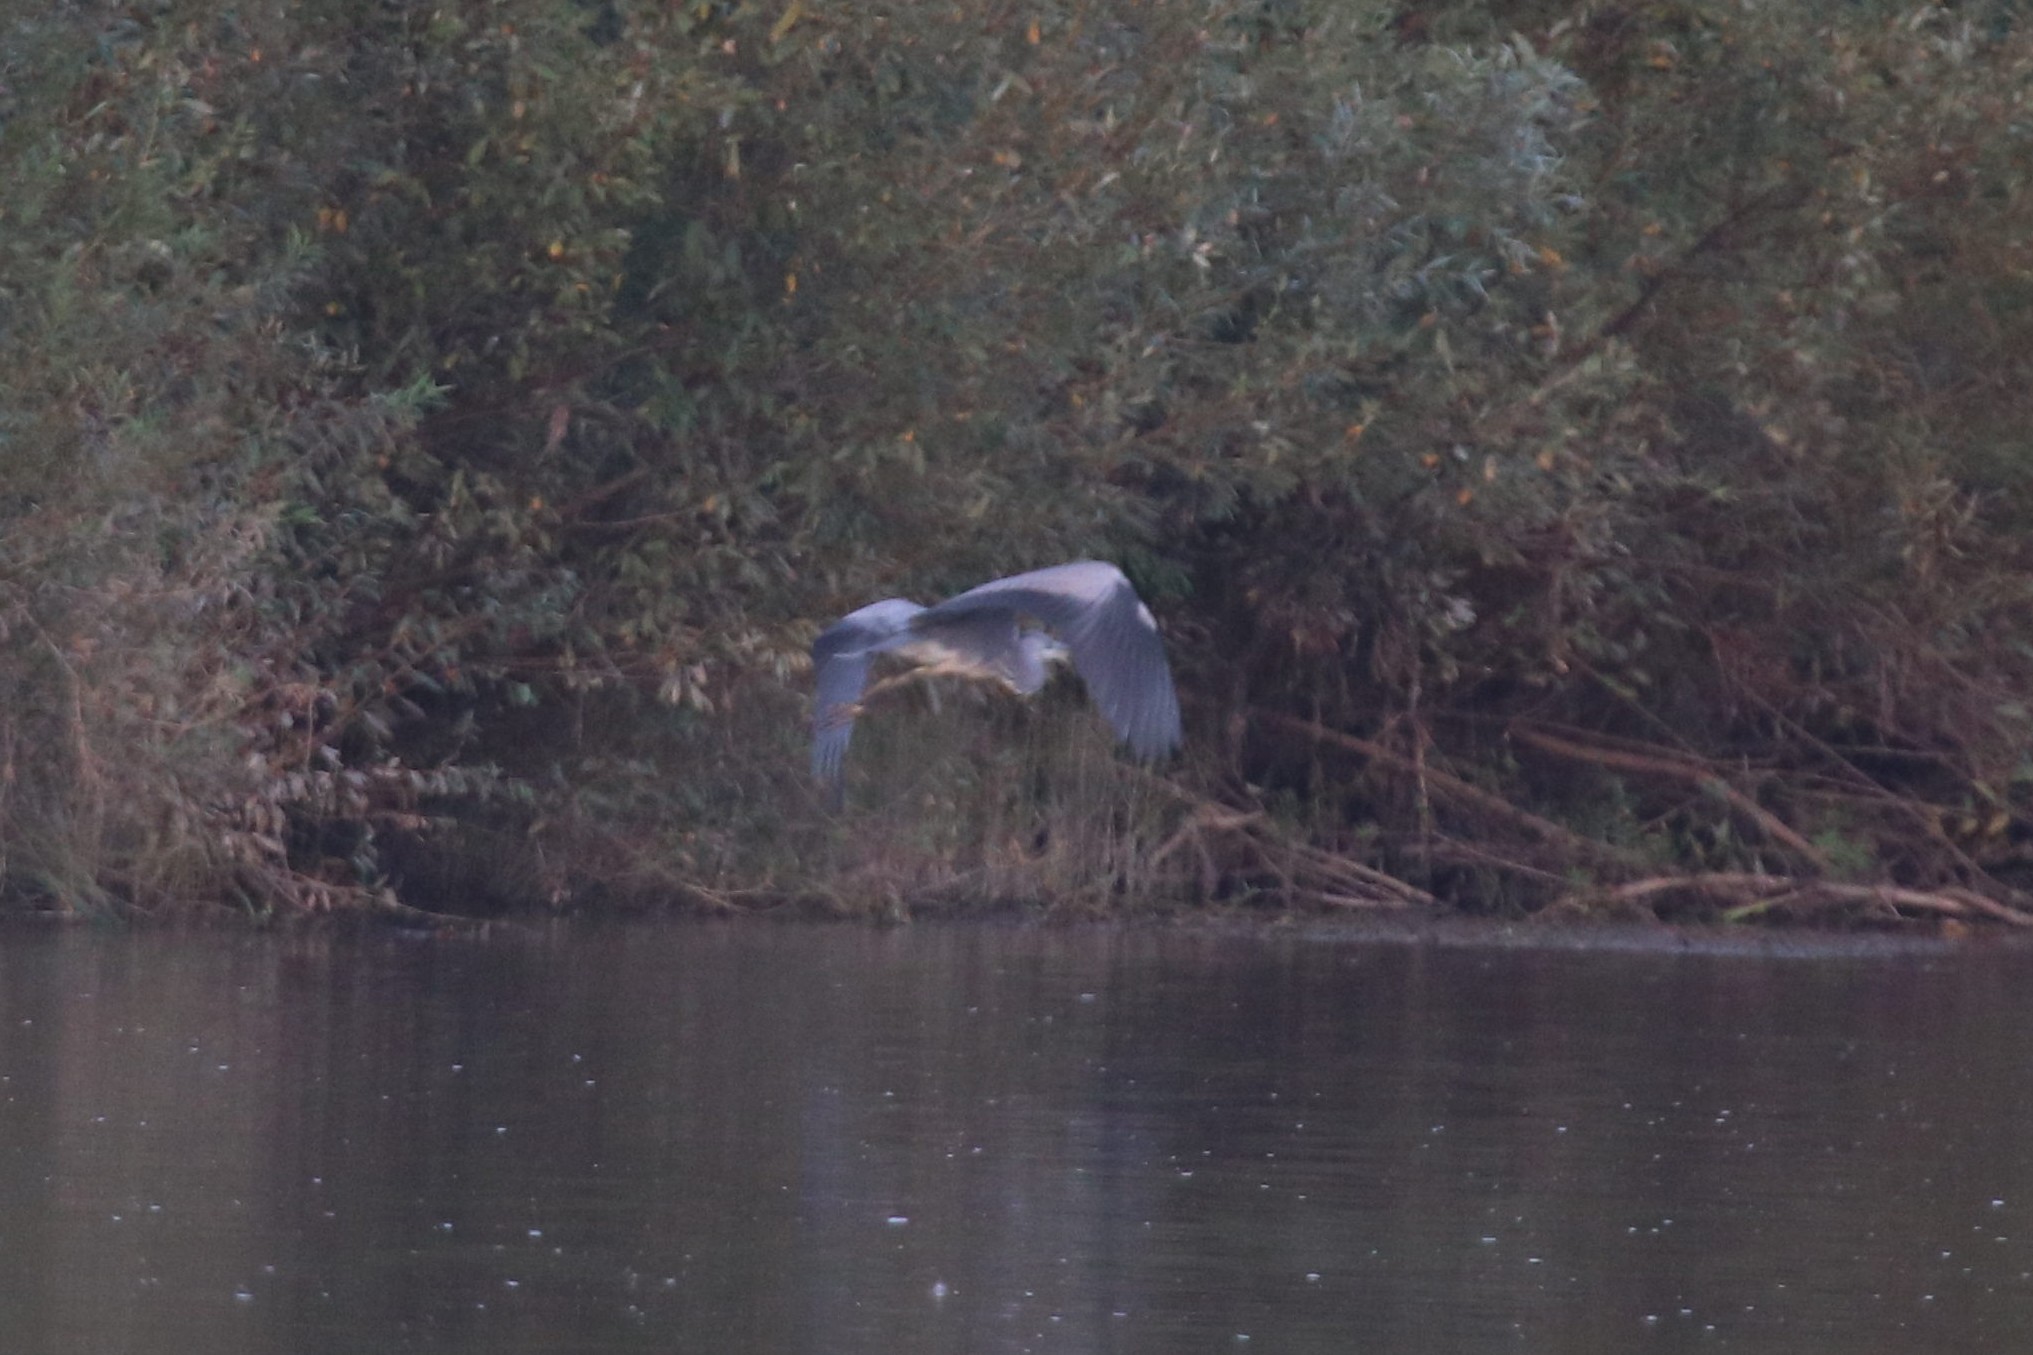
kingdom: Animalia
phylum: Chordata
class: Aves
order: Pelecaniformes
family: Ardeidae
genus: Ardea
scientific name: Ardea cinerea
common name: Grey heron
